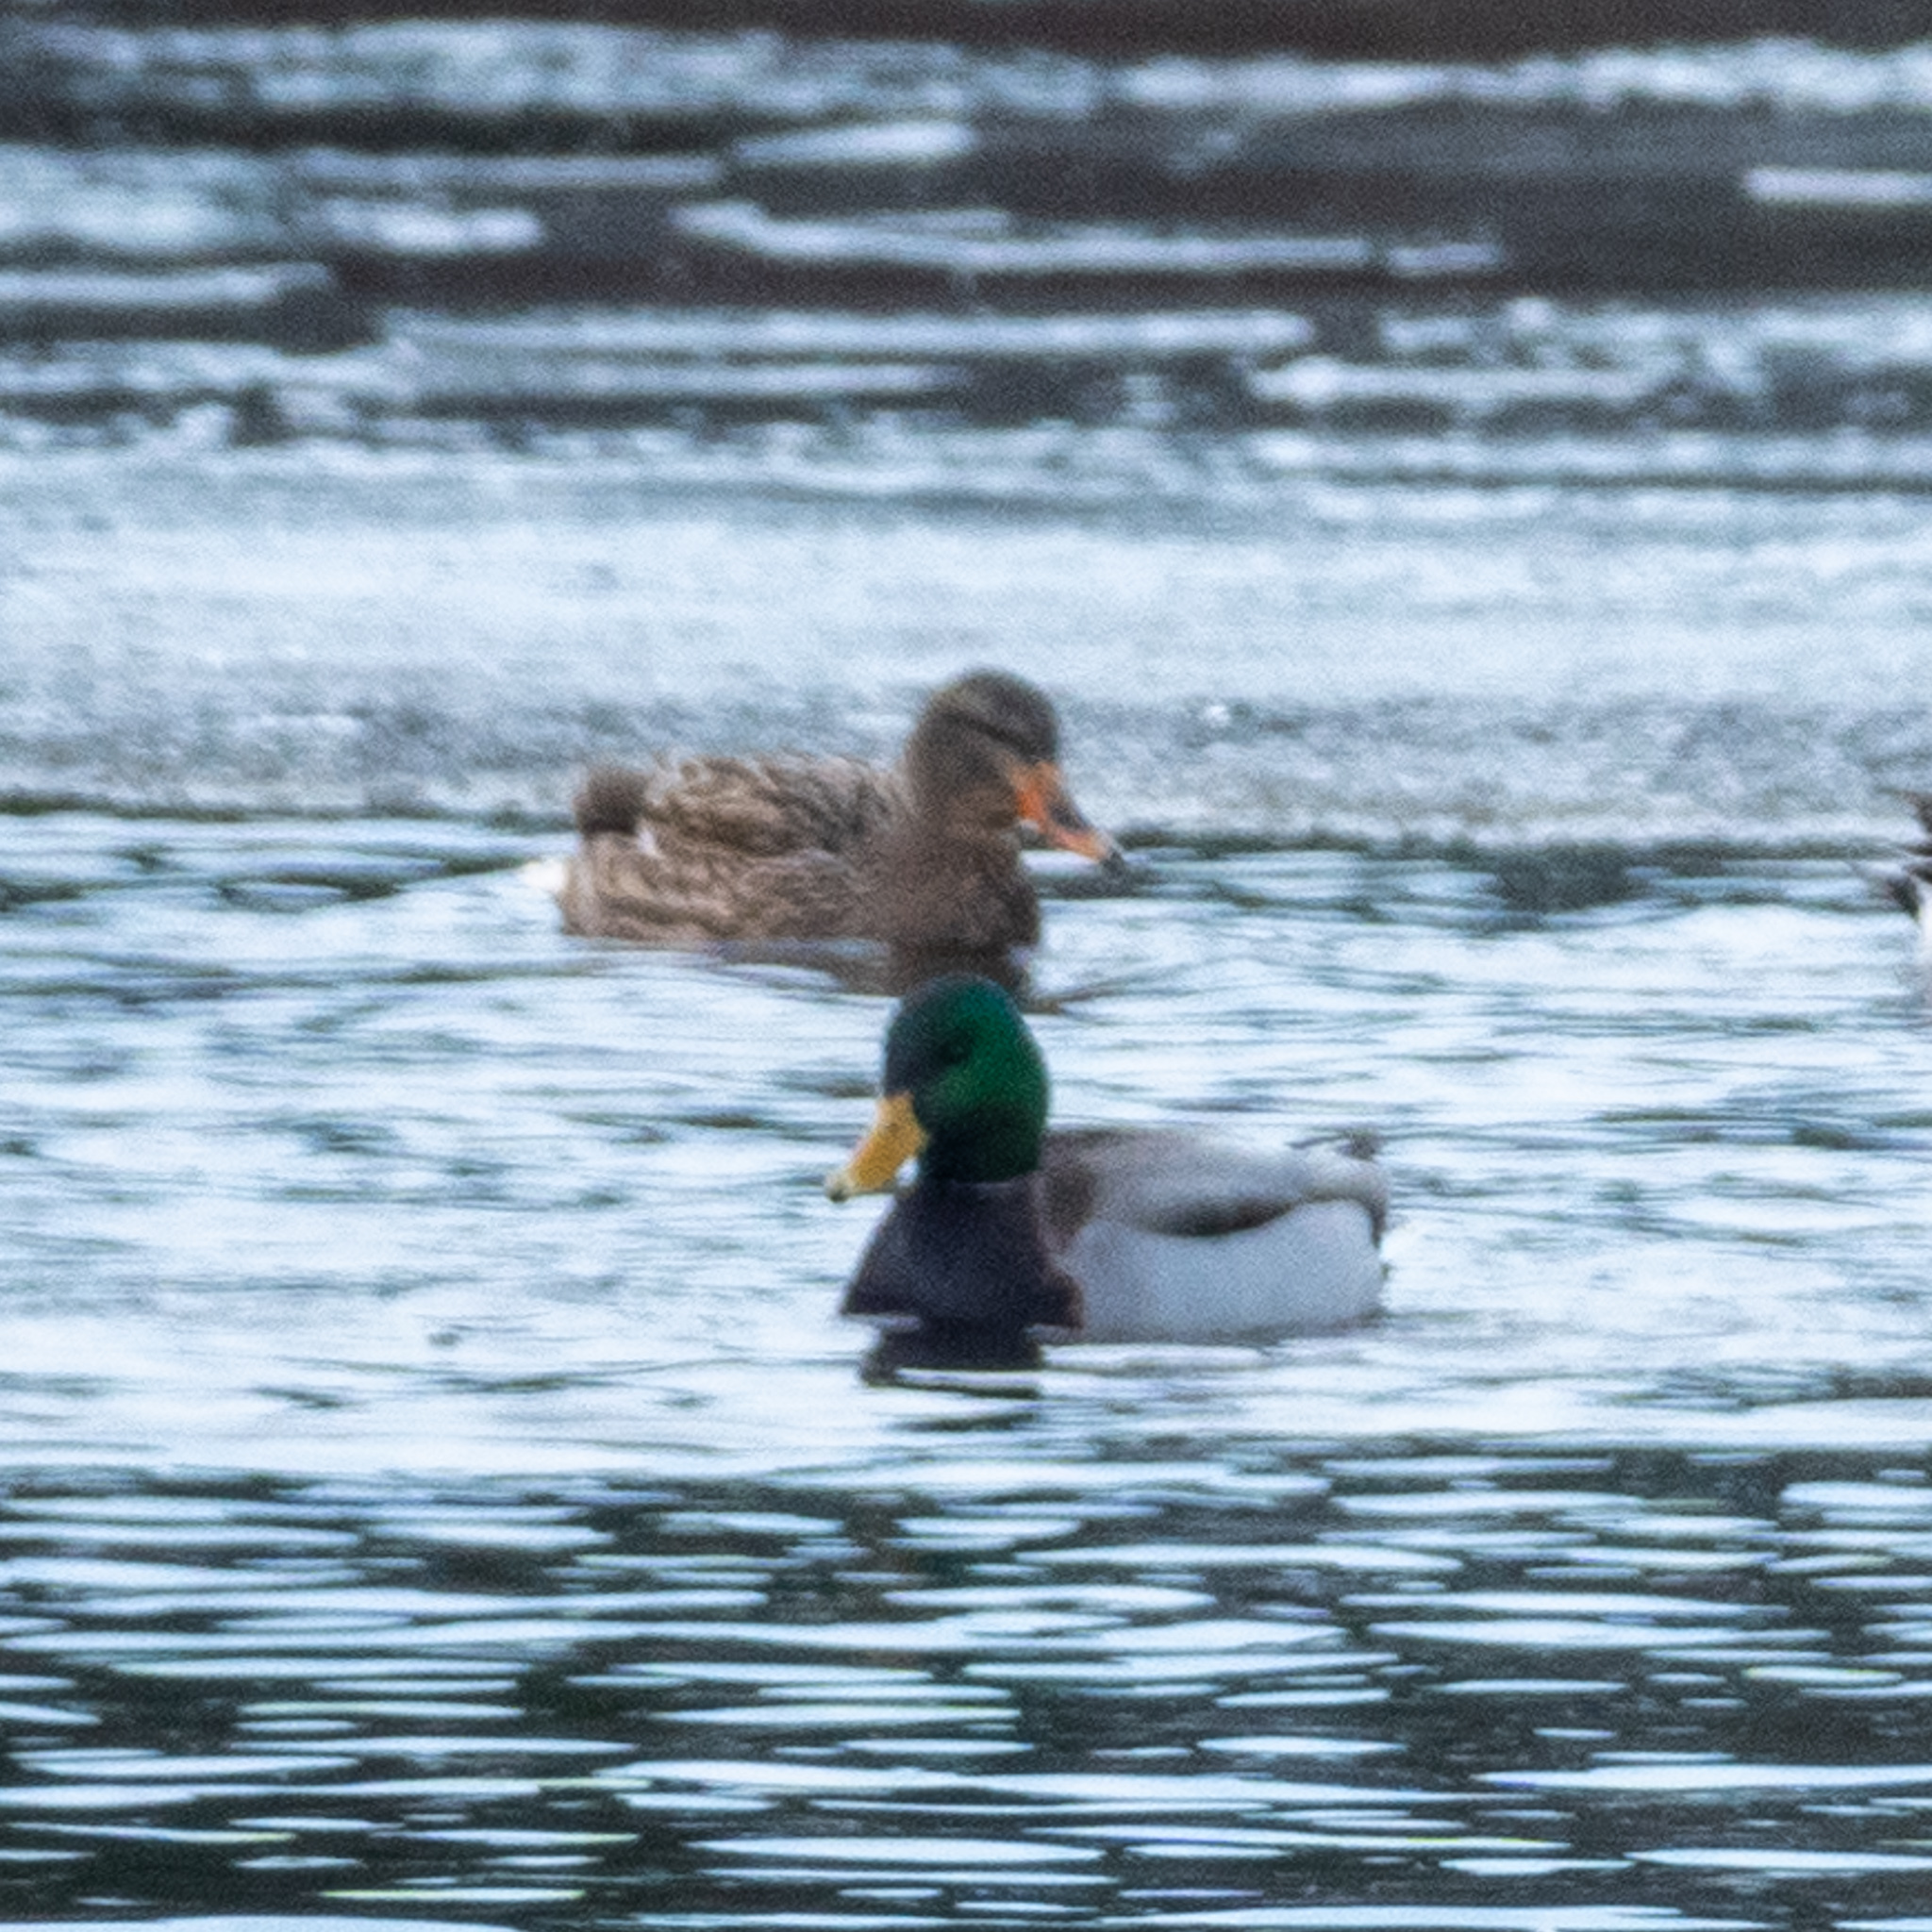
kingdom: Animalia
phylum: Chordata
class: Aves
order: Anseriformes
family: Anatidae
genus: Anas
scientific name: Anas platyrhynchos
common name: Mallard
